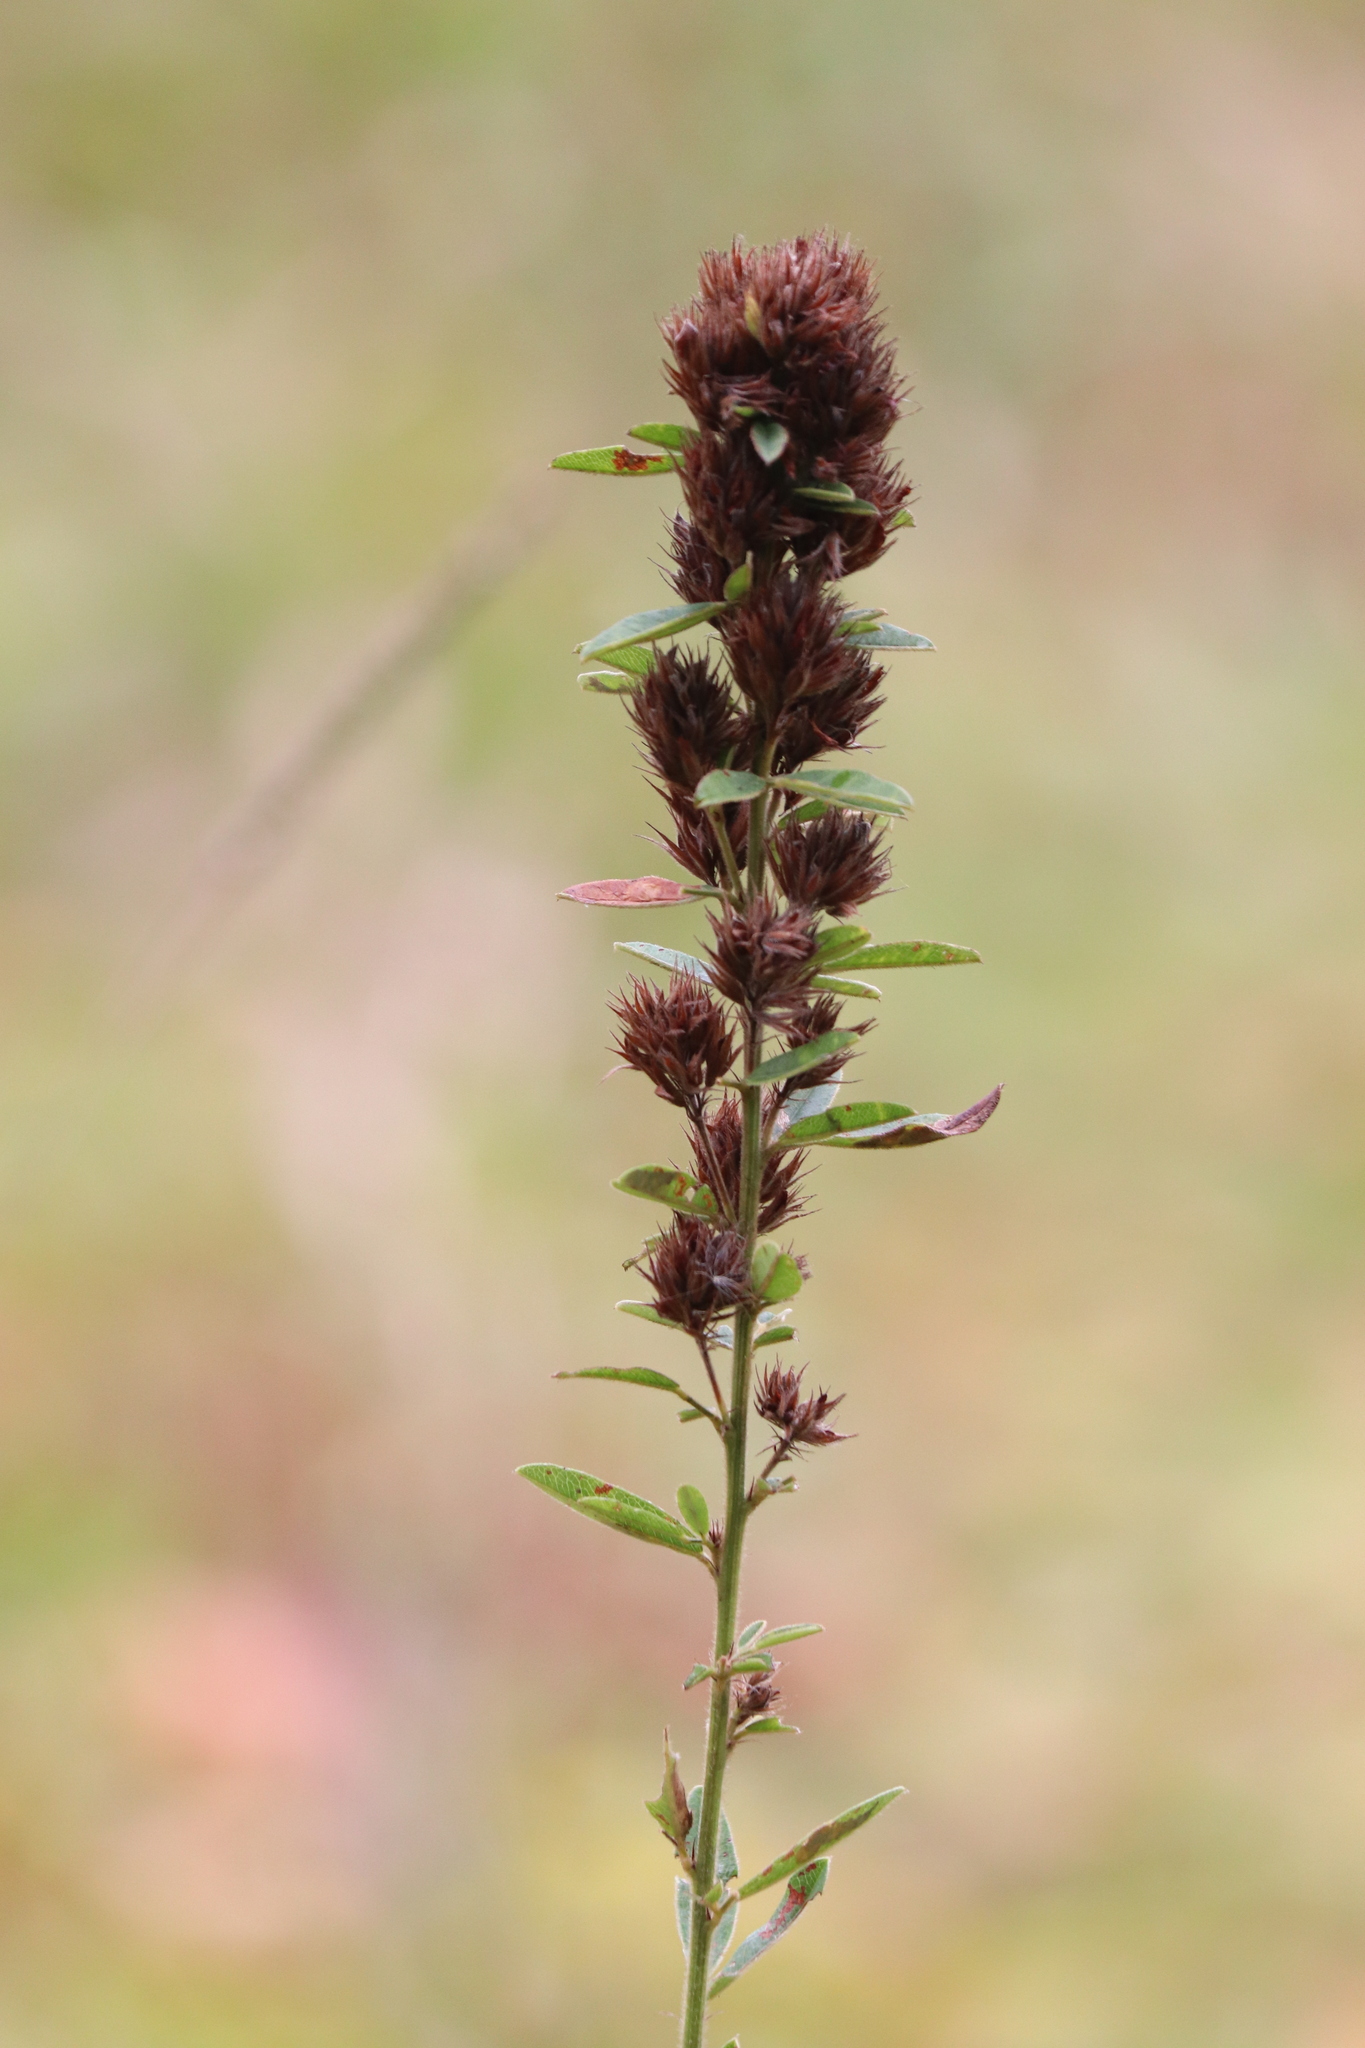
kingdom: Plantae
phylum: Tracheophyta
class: Magnoliopsida
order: Fabales
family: Fabaceae
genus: Lespedeza
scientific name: Lespedeza capitata
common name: Dusty clover
